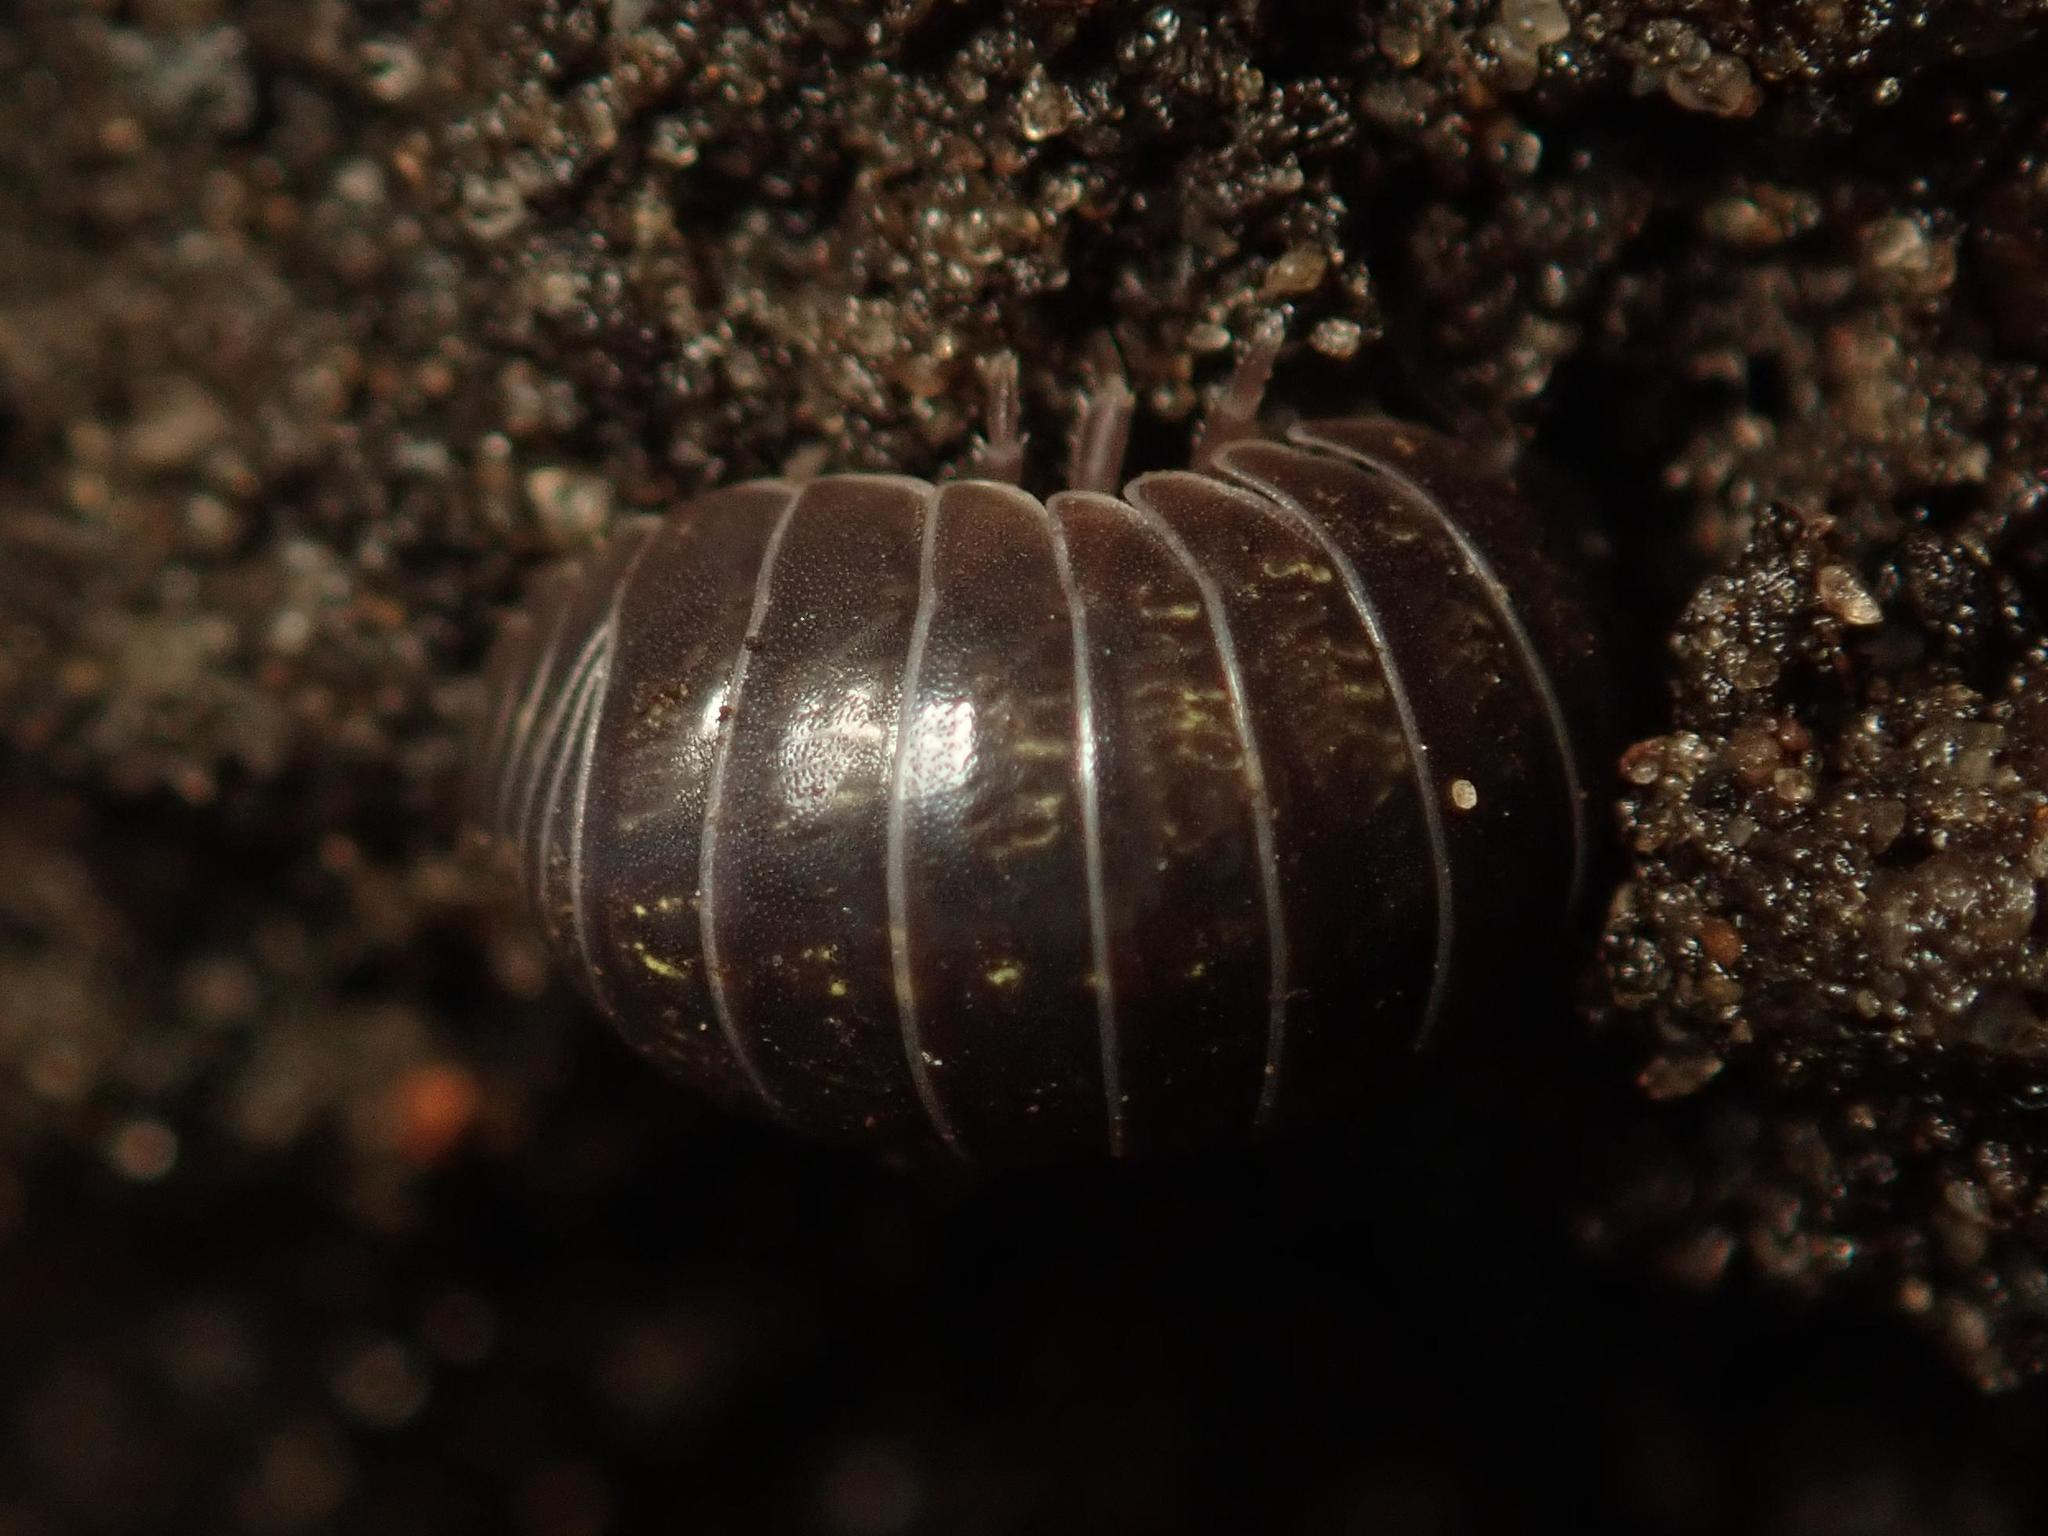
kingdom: Animalia
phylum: Arthropoda
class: Malacostraca
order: Isopoda
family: Armadillidiidae
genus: Armadillidium
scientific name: Armadillidium vulgare
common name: Common pill woodlouse
